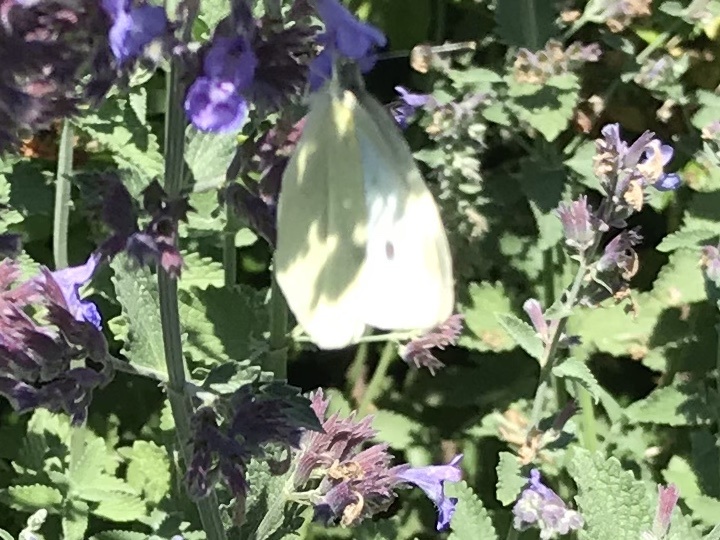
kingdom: Animalia
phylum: Arthropoda
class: Insecta
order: Lepidoptera
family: Pieridae
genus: Pieris
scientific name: Pieris rapae
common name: Small white
